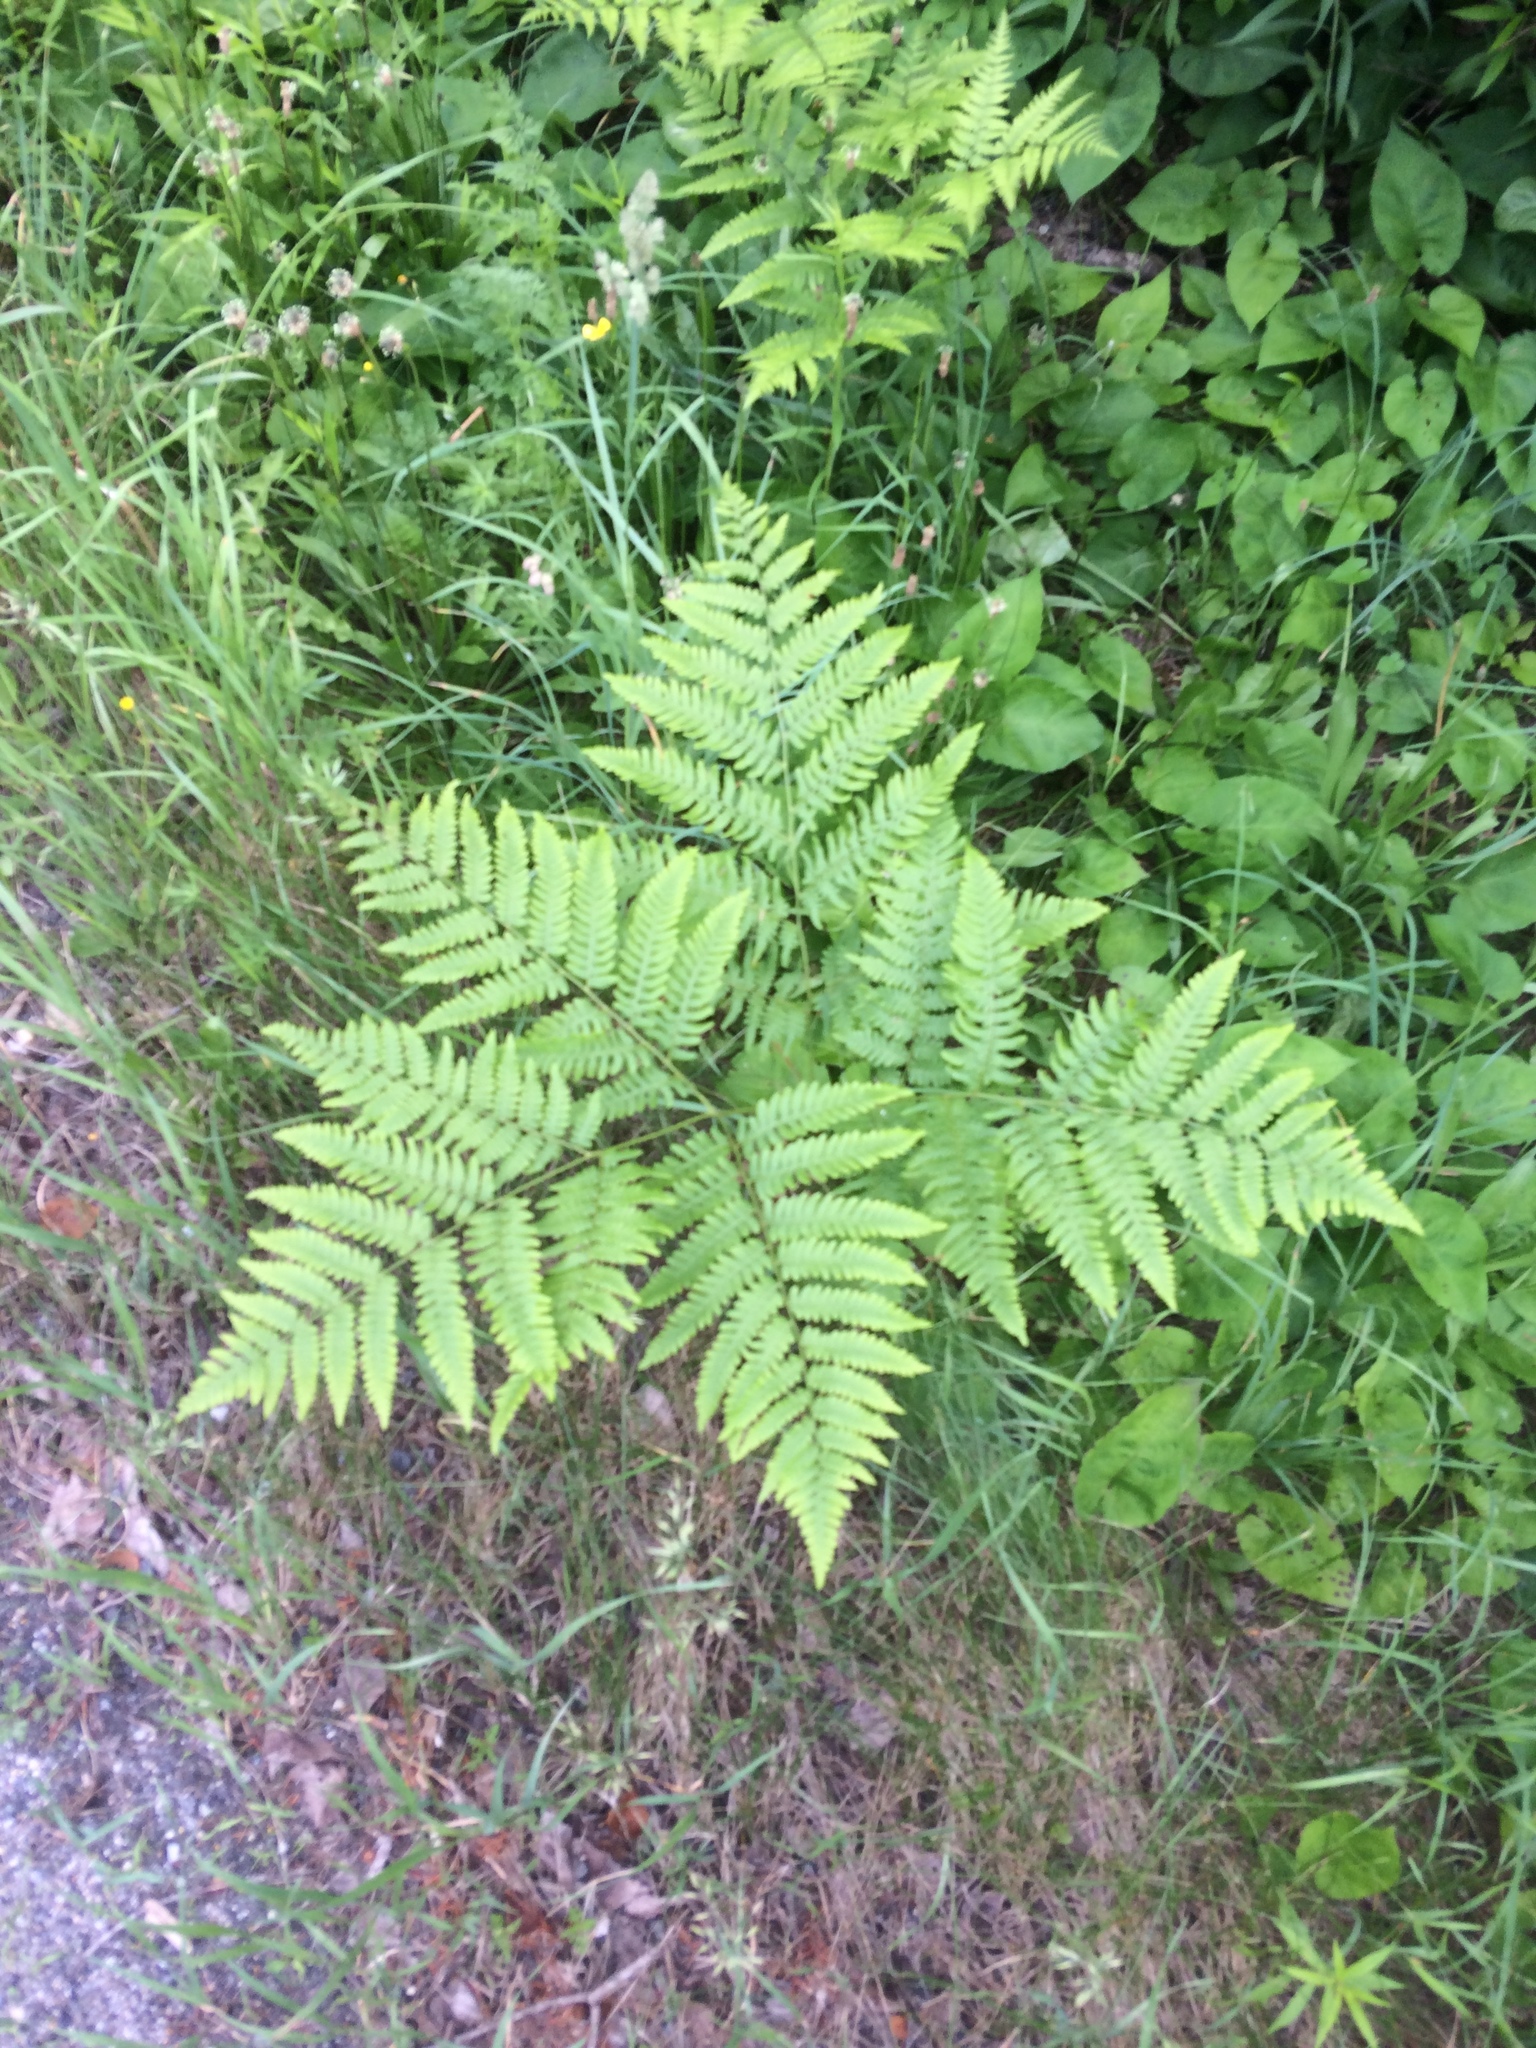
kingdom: Plantae
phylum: Tracheophyta
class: Polypodiopsida
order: Polypodiales
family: Dennstaedtiaceae
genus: Pteridium
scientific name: Pteridium aquilinum
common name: Bracken
